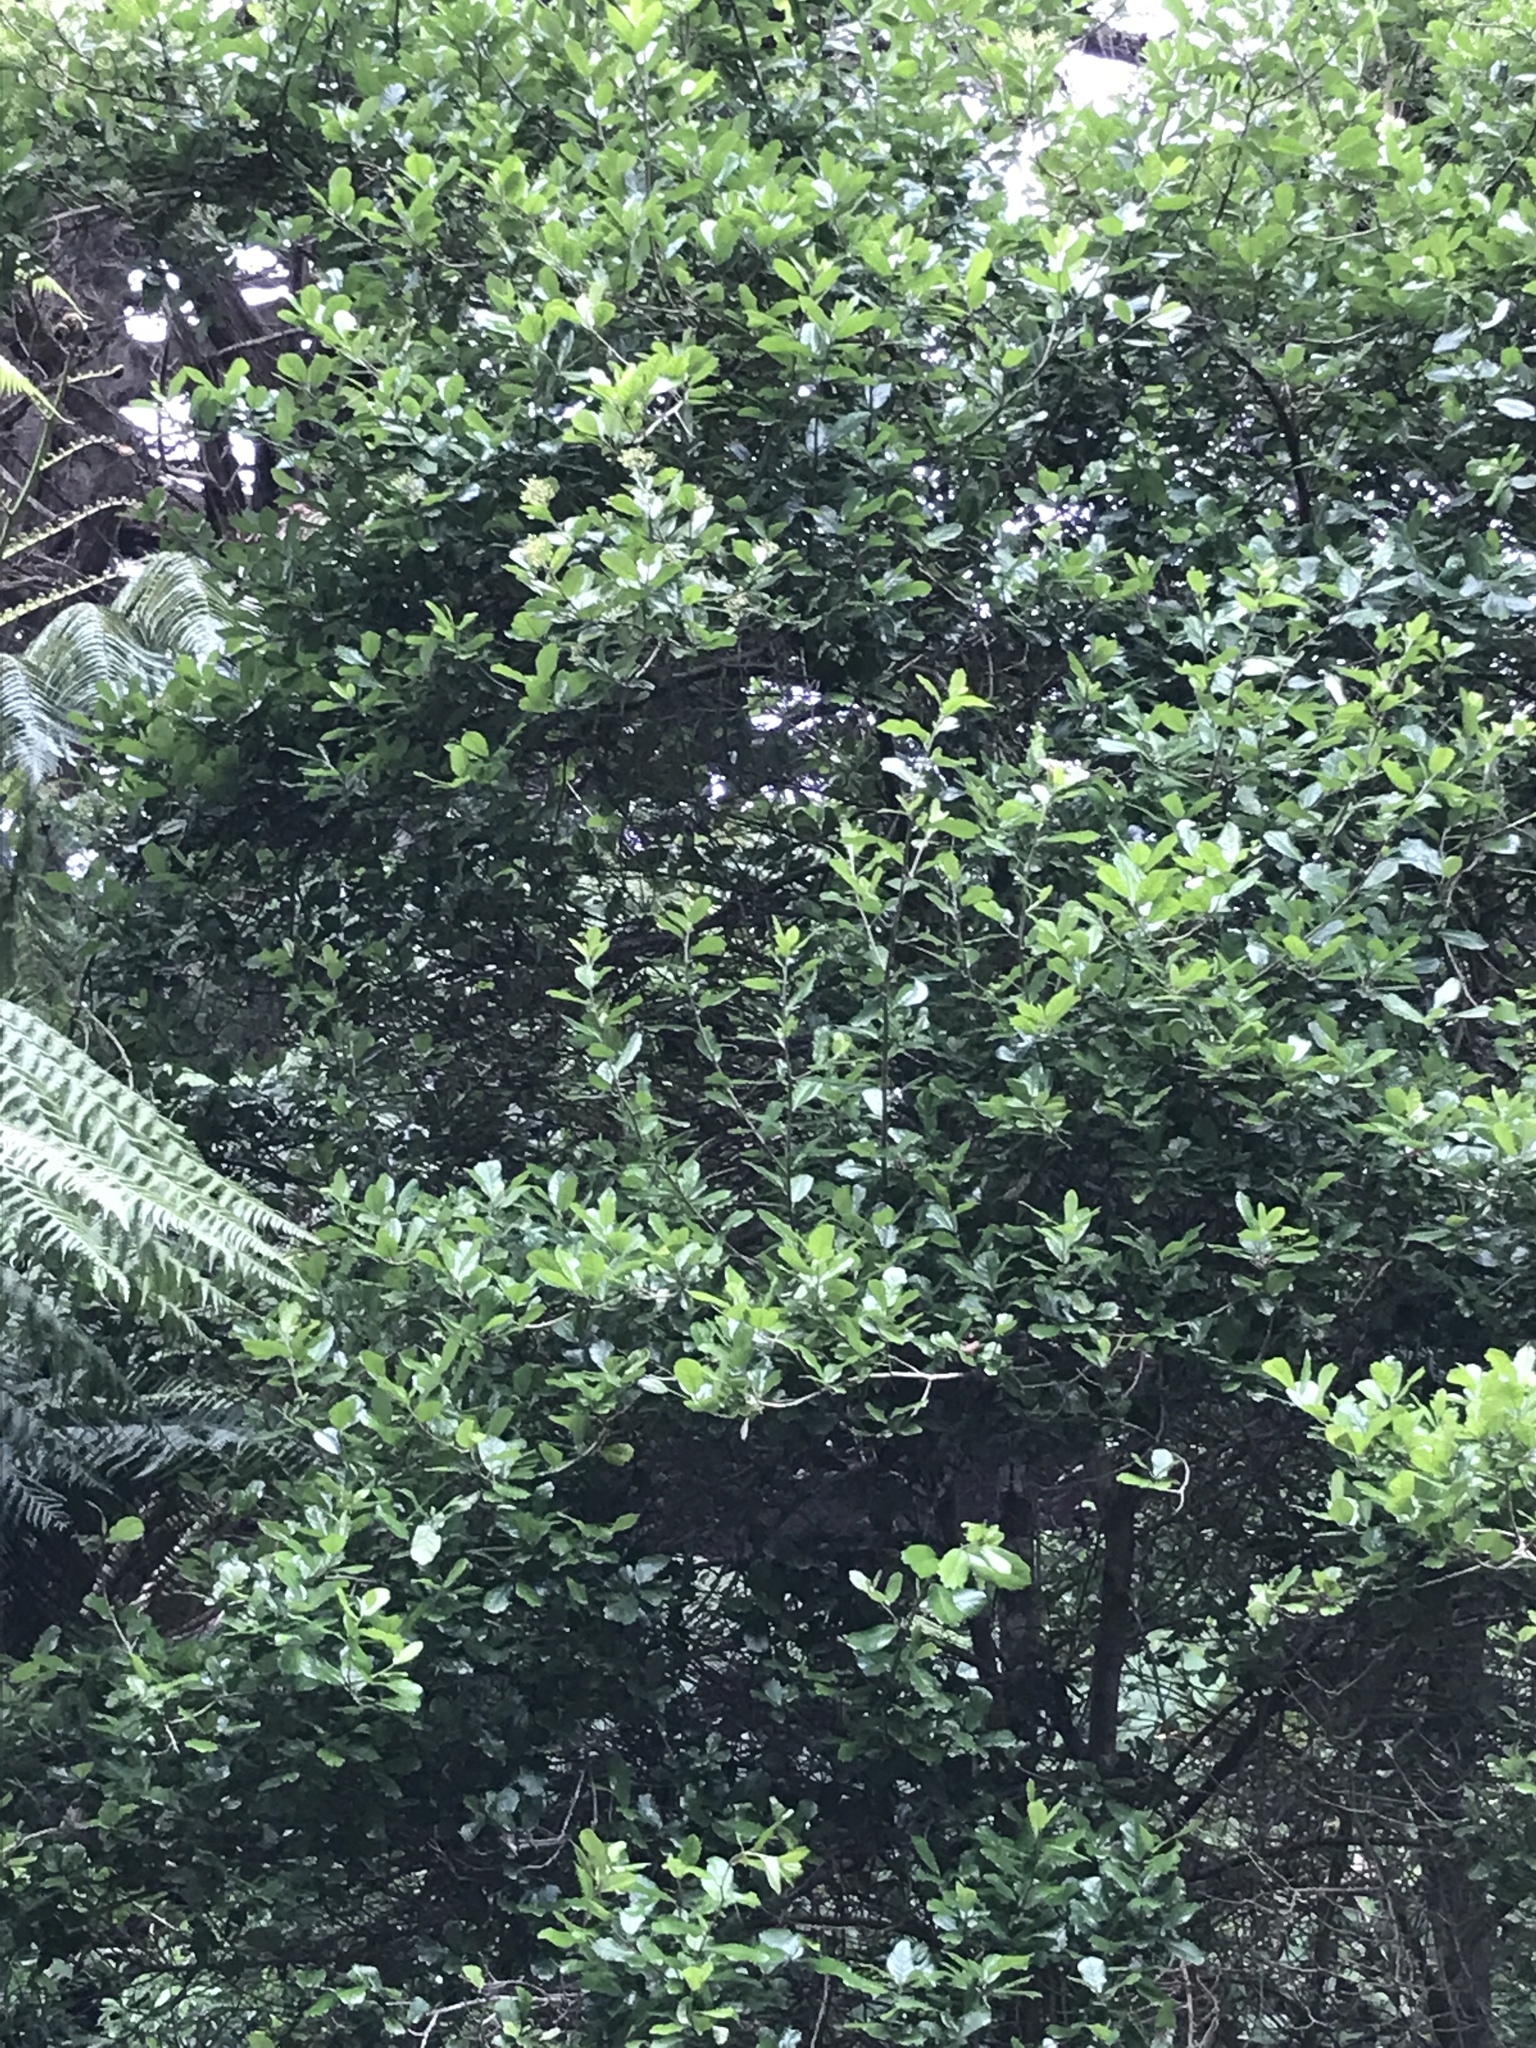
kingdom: Plantae
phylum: Tracheophyta
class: Magnoliopsida
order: Apiales
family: Pennantiaceae
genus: Pennantia
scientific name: Pennantia corymbosa
